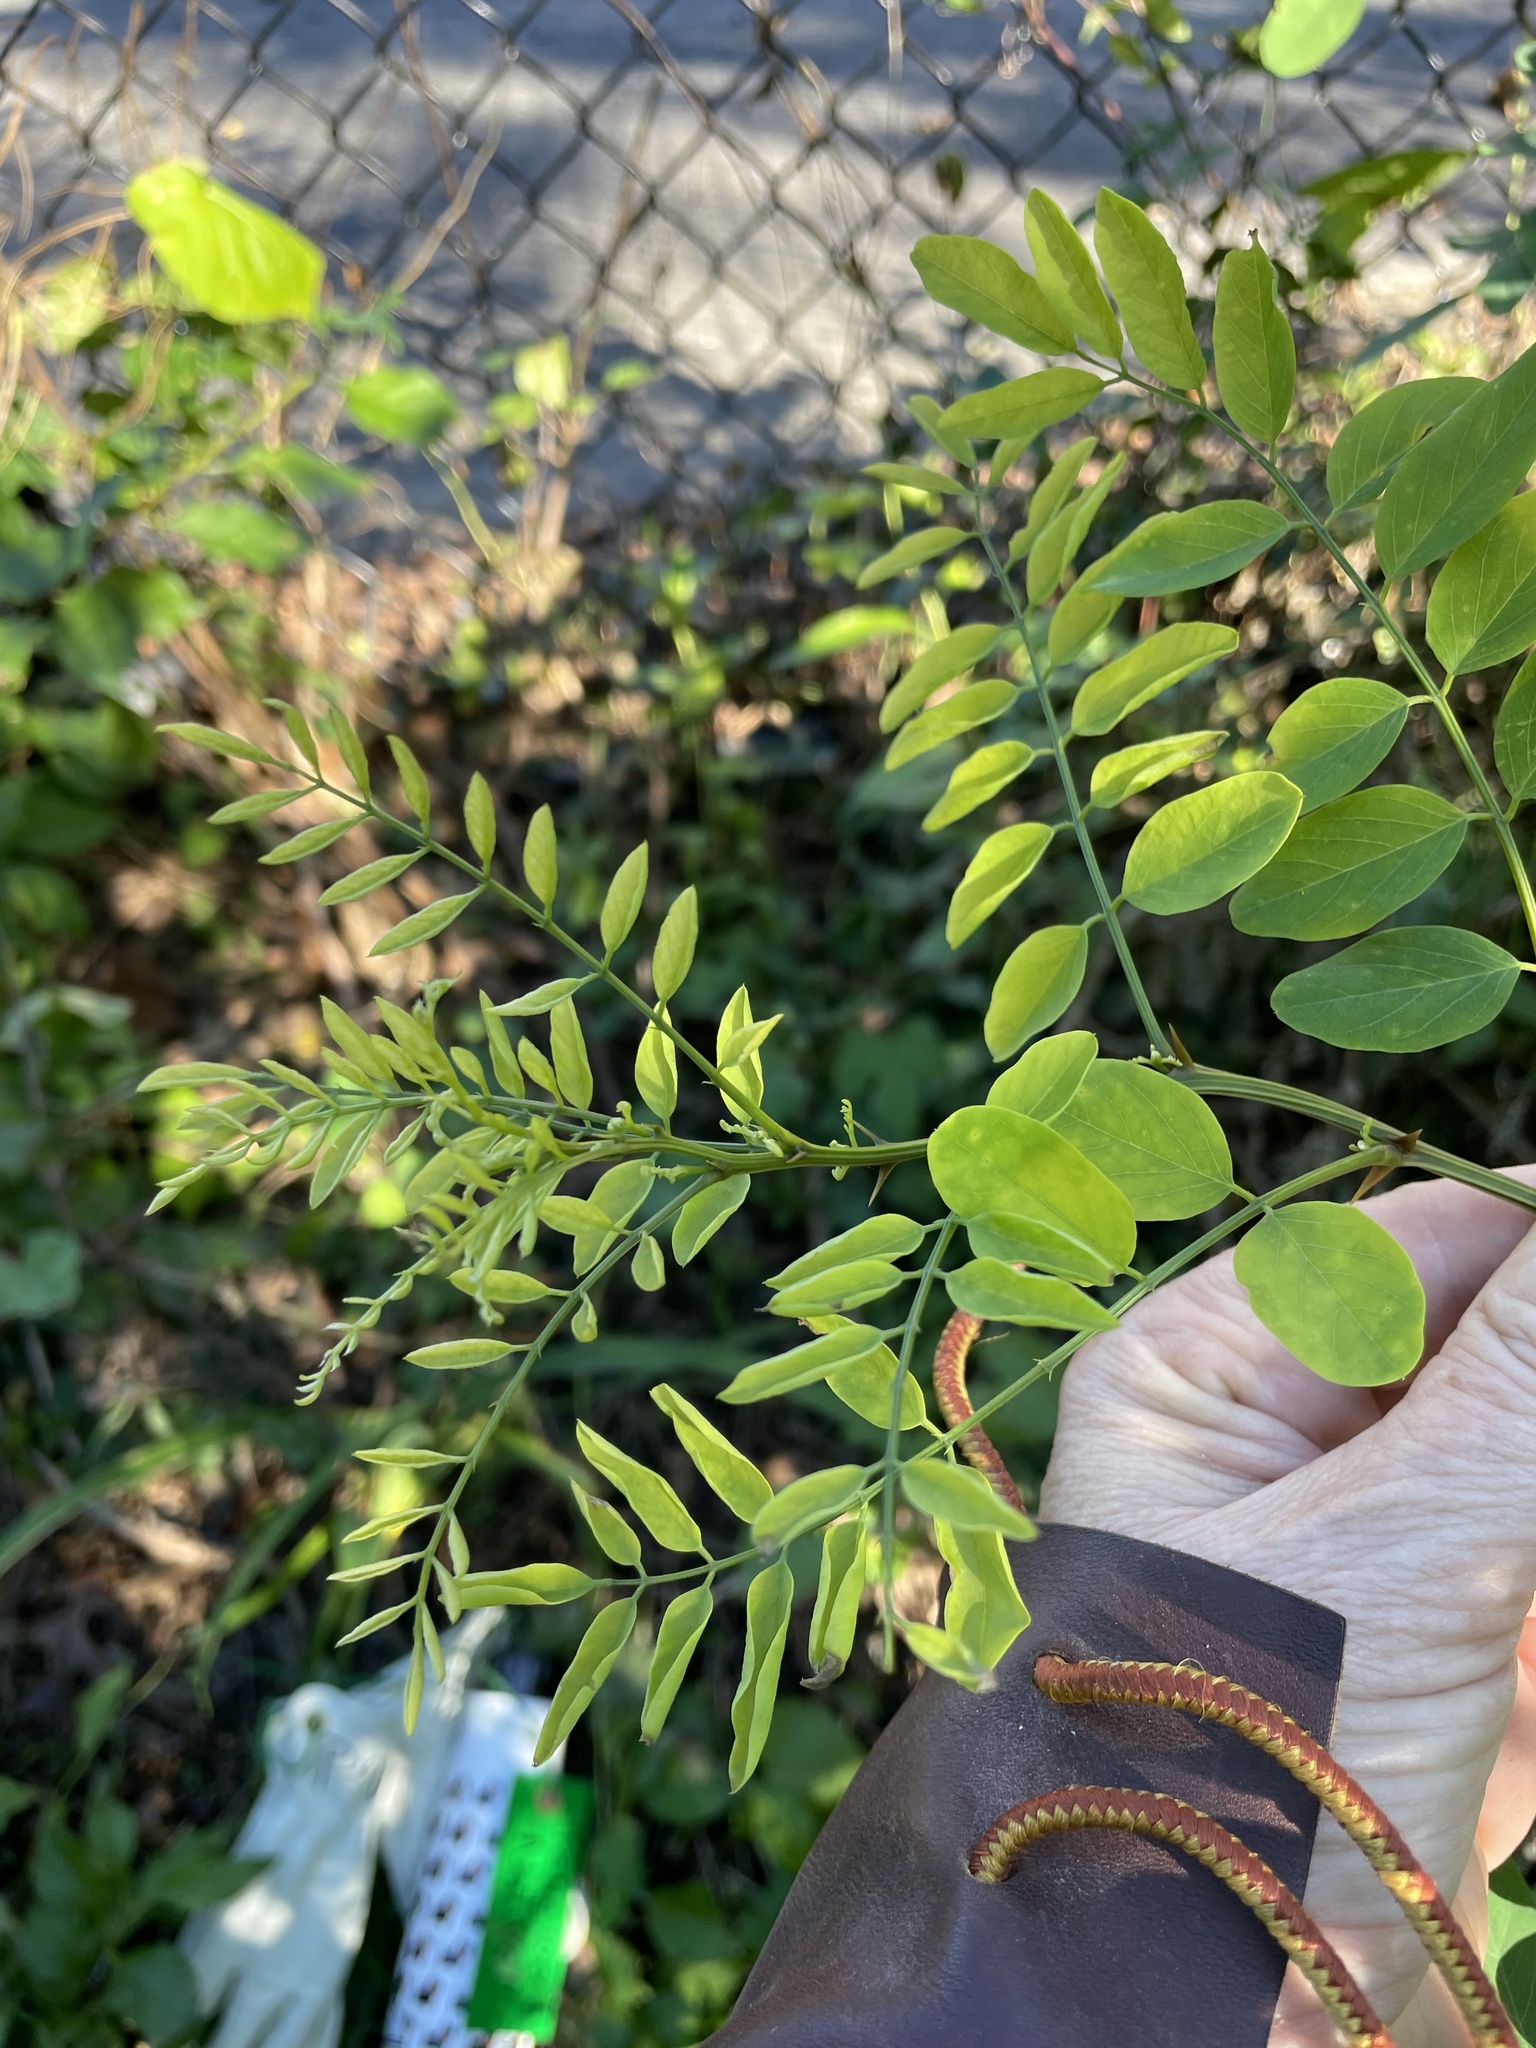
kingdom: Plantae
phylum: Tracheophyta
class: Magnoliopsida
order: Fabales
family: Fabaceae
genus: Robinia
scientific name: Robinia pseudoacacia
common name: Black locust
